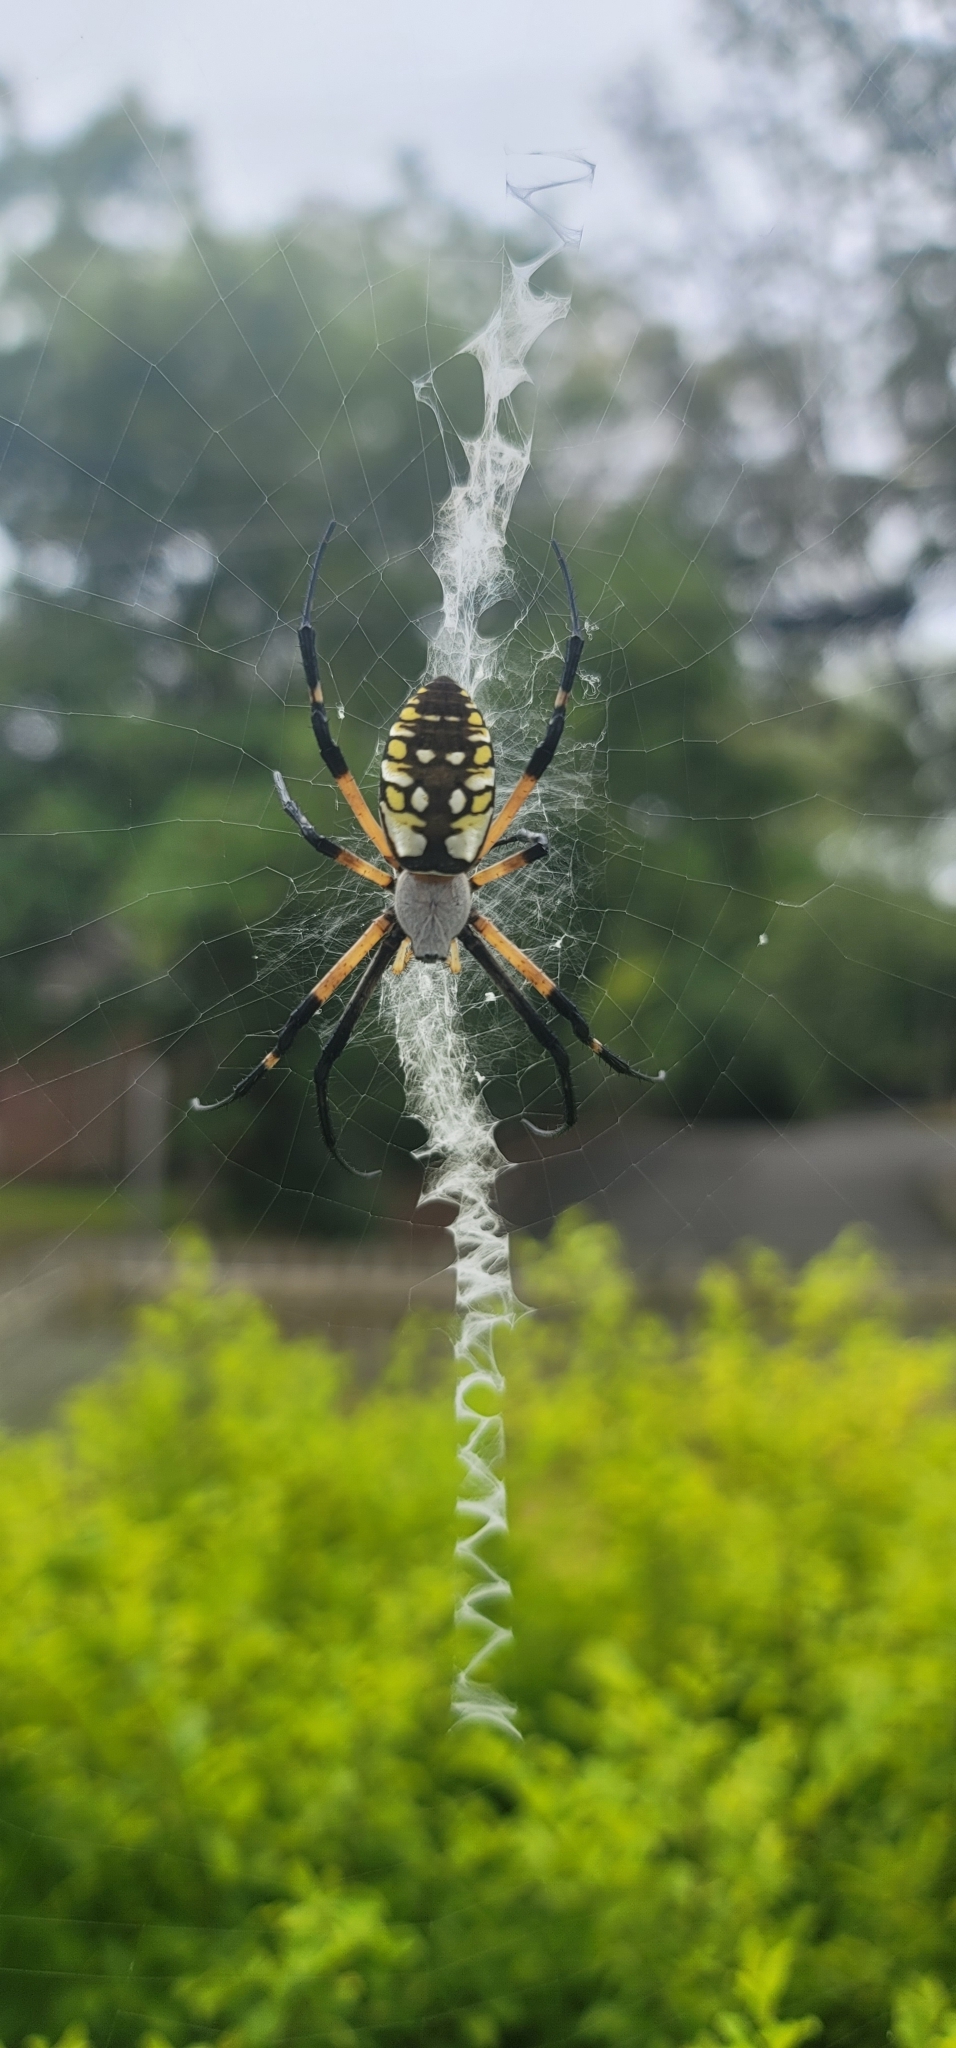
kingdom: Animalia
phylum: Arthropoda
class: Arachnida
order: Araneae
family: Araneidae
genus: Argiope
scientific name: Argiope aurantia
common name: Orb weavers
